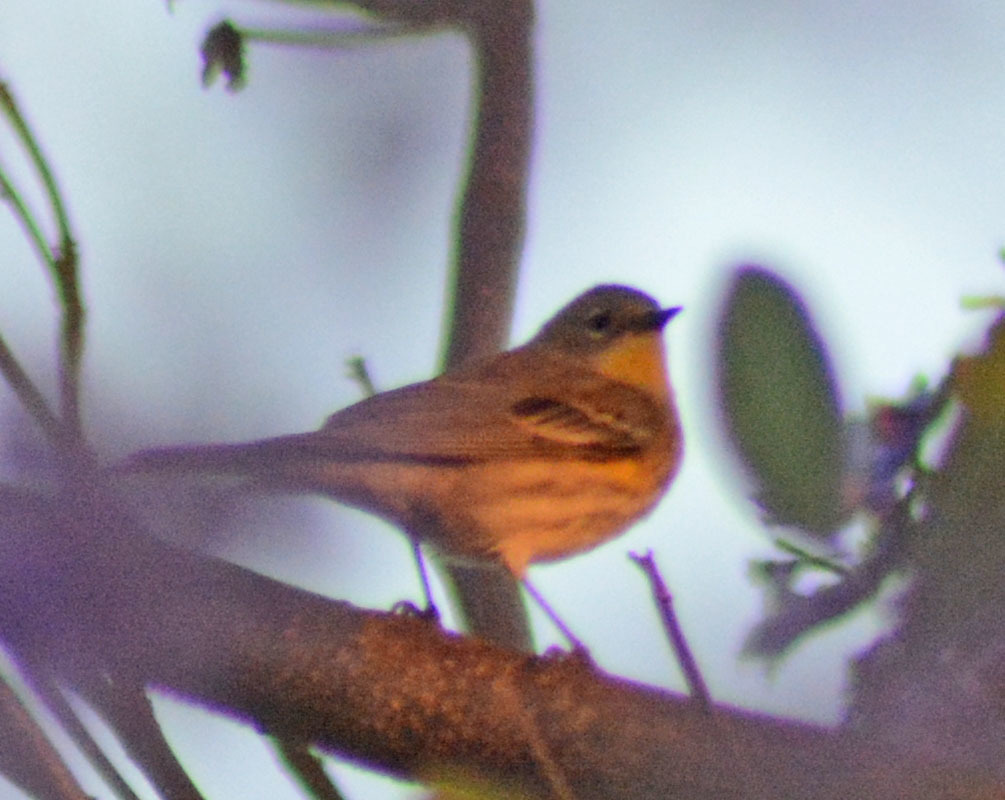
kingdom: Animalia
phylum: Chordata
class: Aves
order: Passeriformes
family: Parulidae
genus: Setophaga
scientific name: Setophaga coronata
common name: Myrtle warbler
